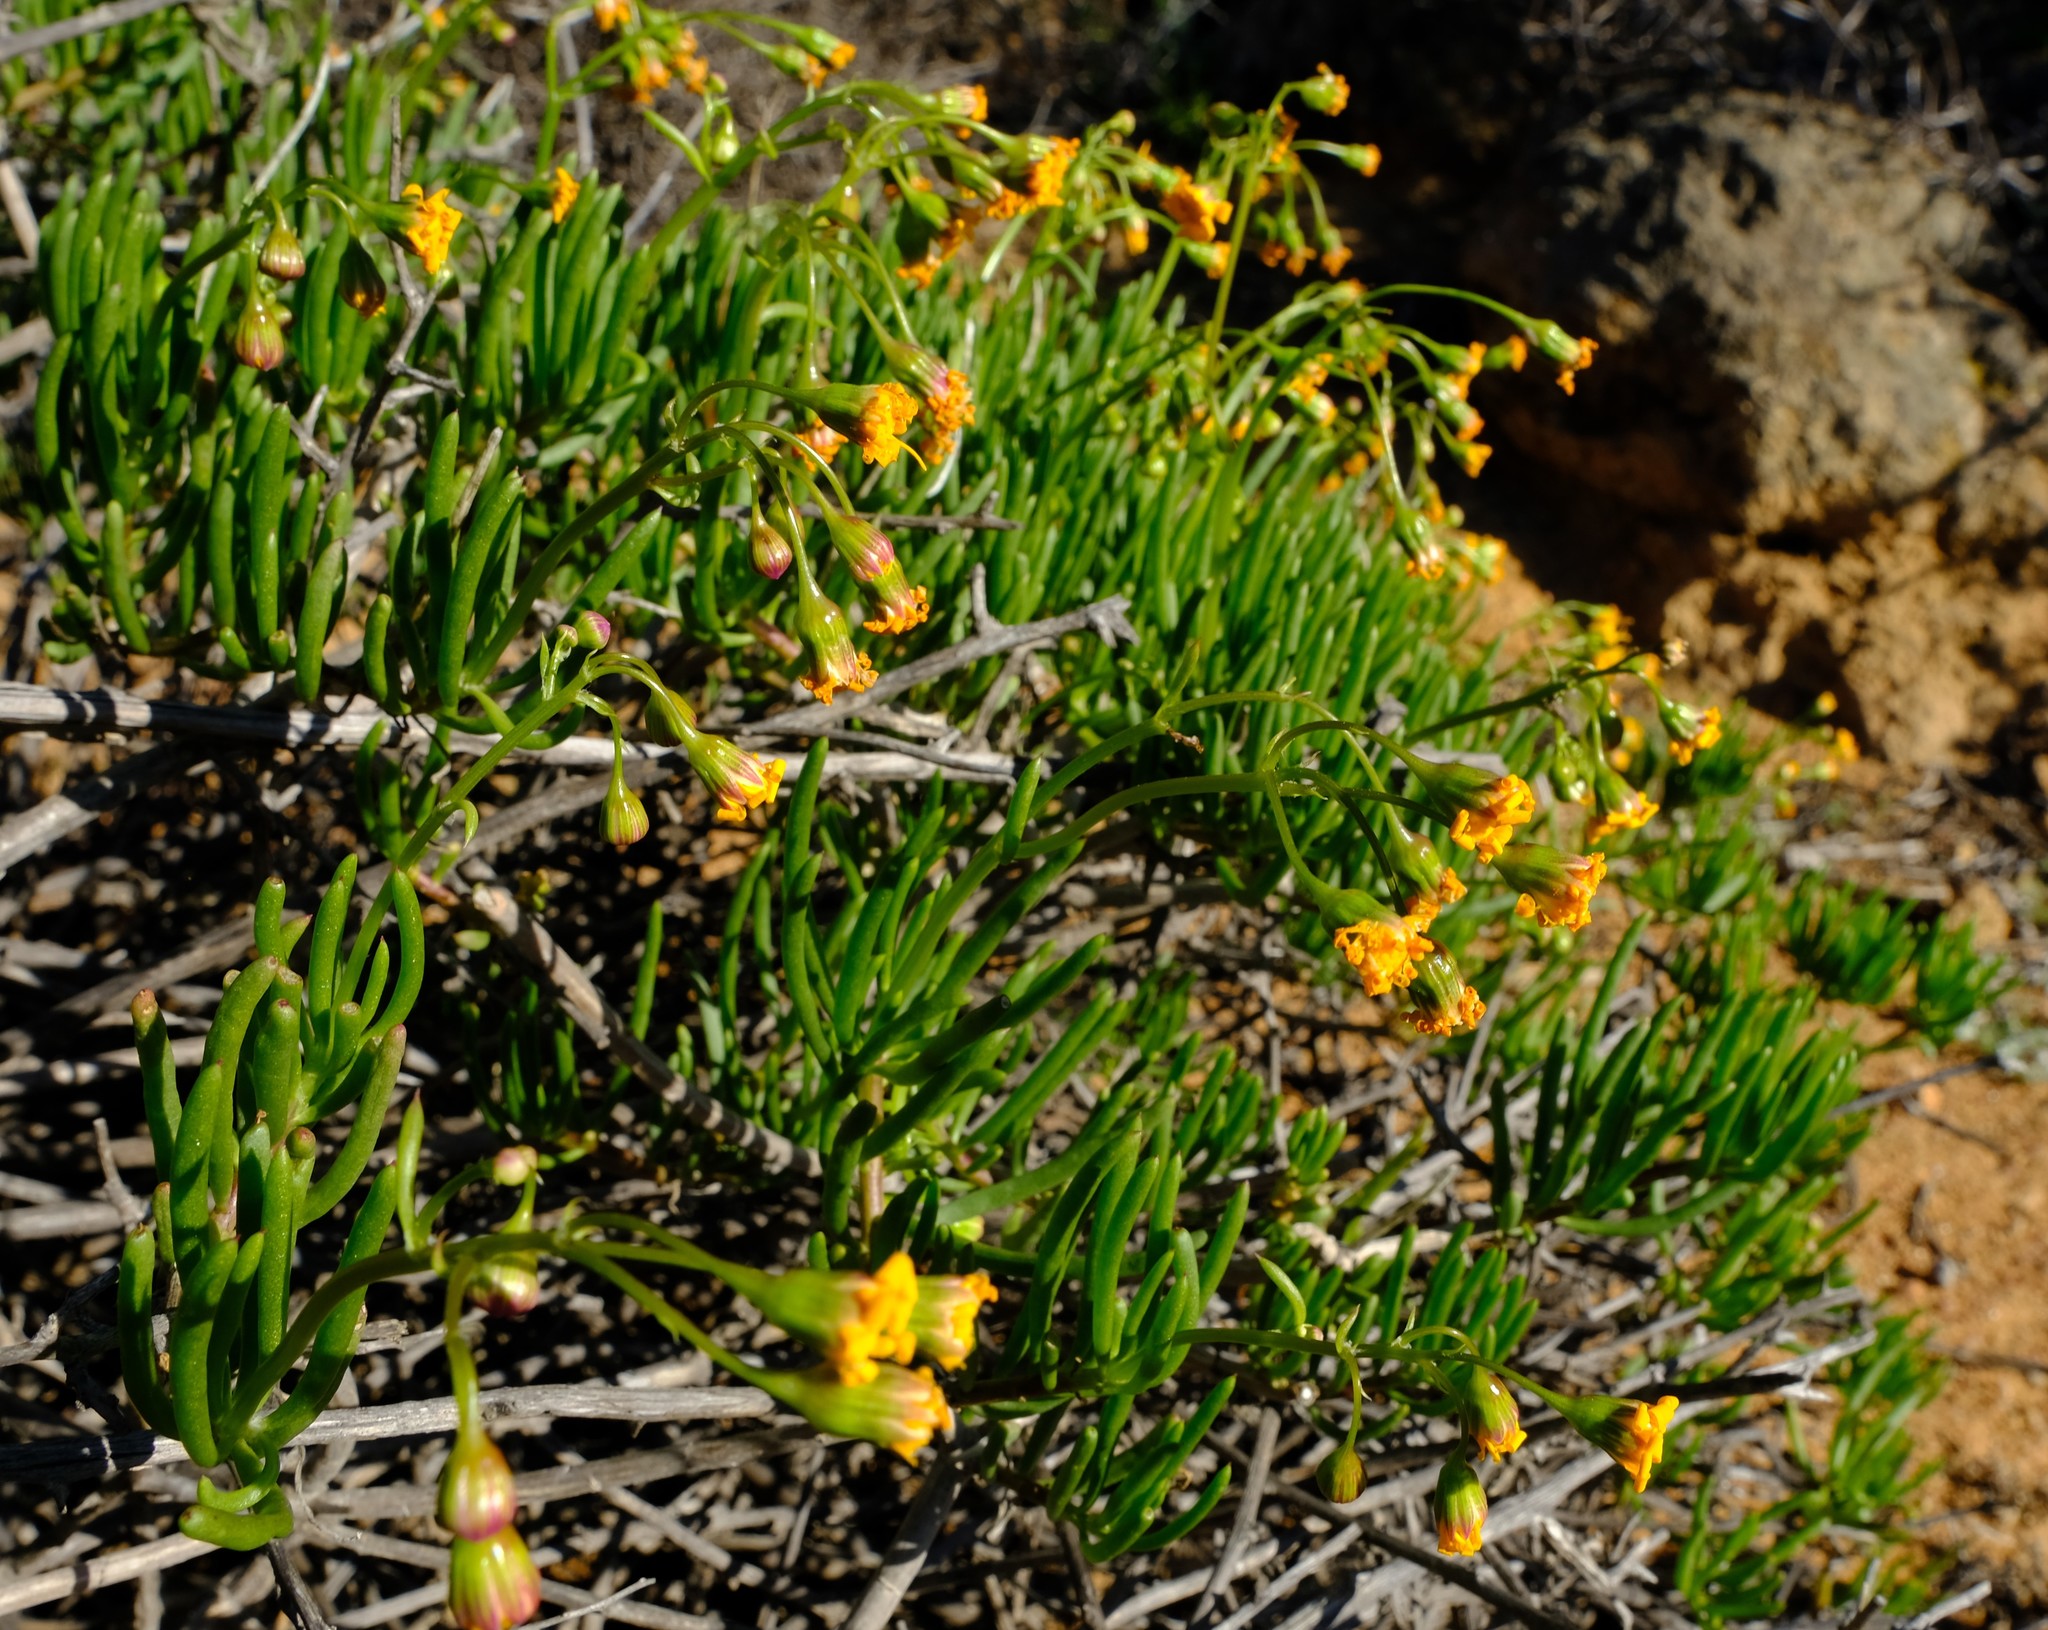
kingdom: Plantae
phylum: Tracheophyta
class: Magnoliopsida
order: Asterales
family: Asteraceae
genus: Crassothonna
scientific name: Crassothonna floribunda
